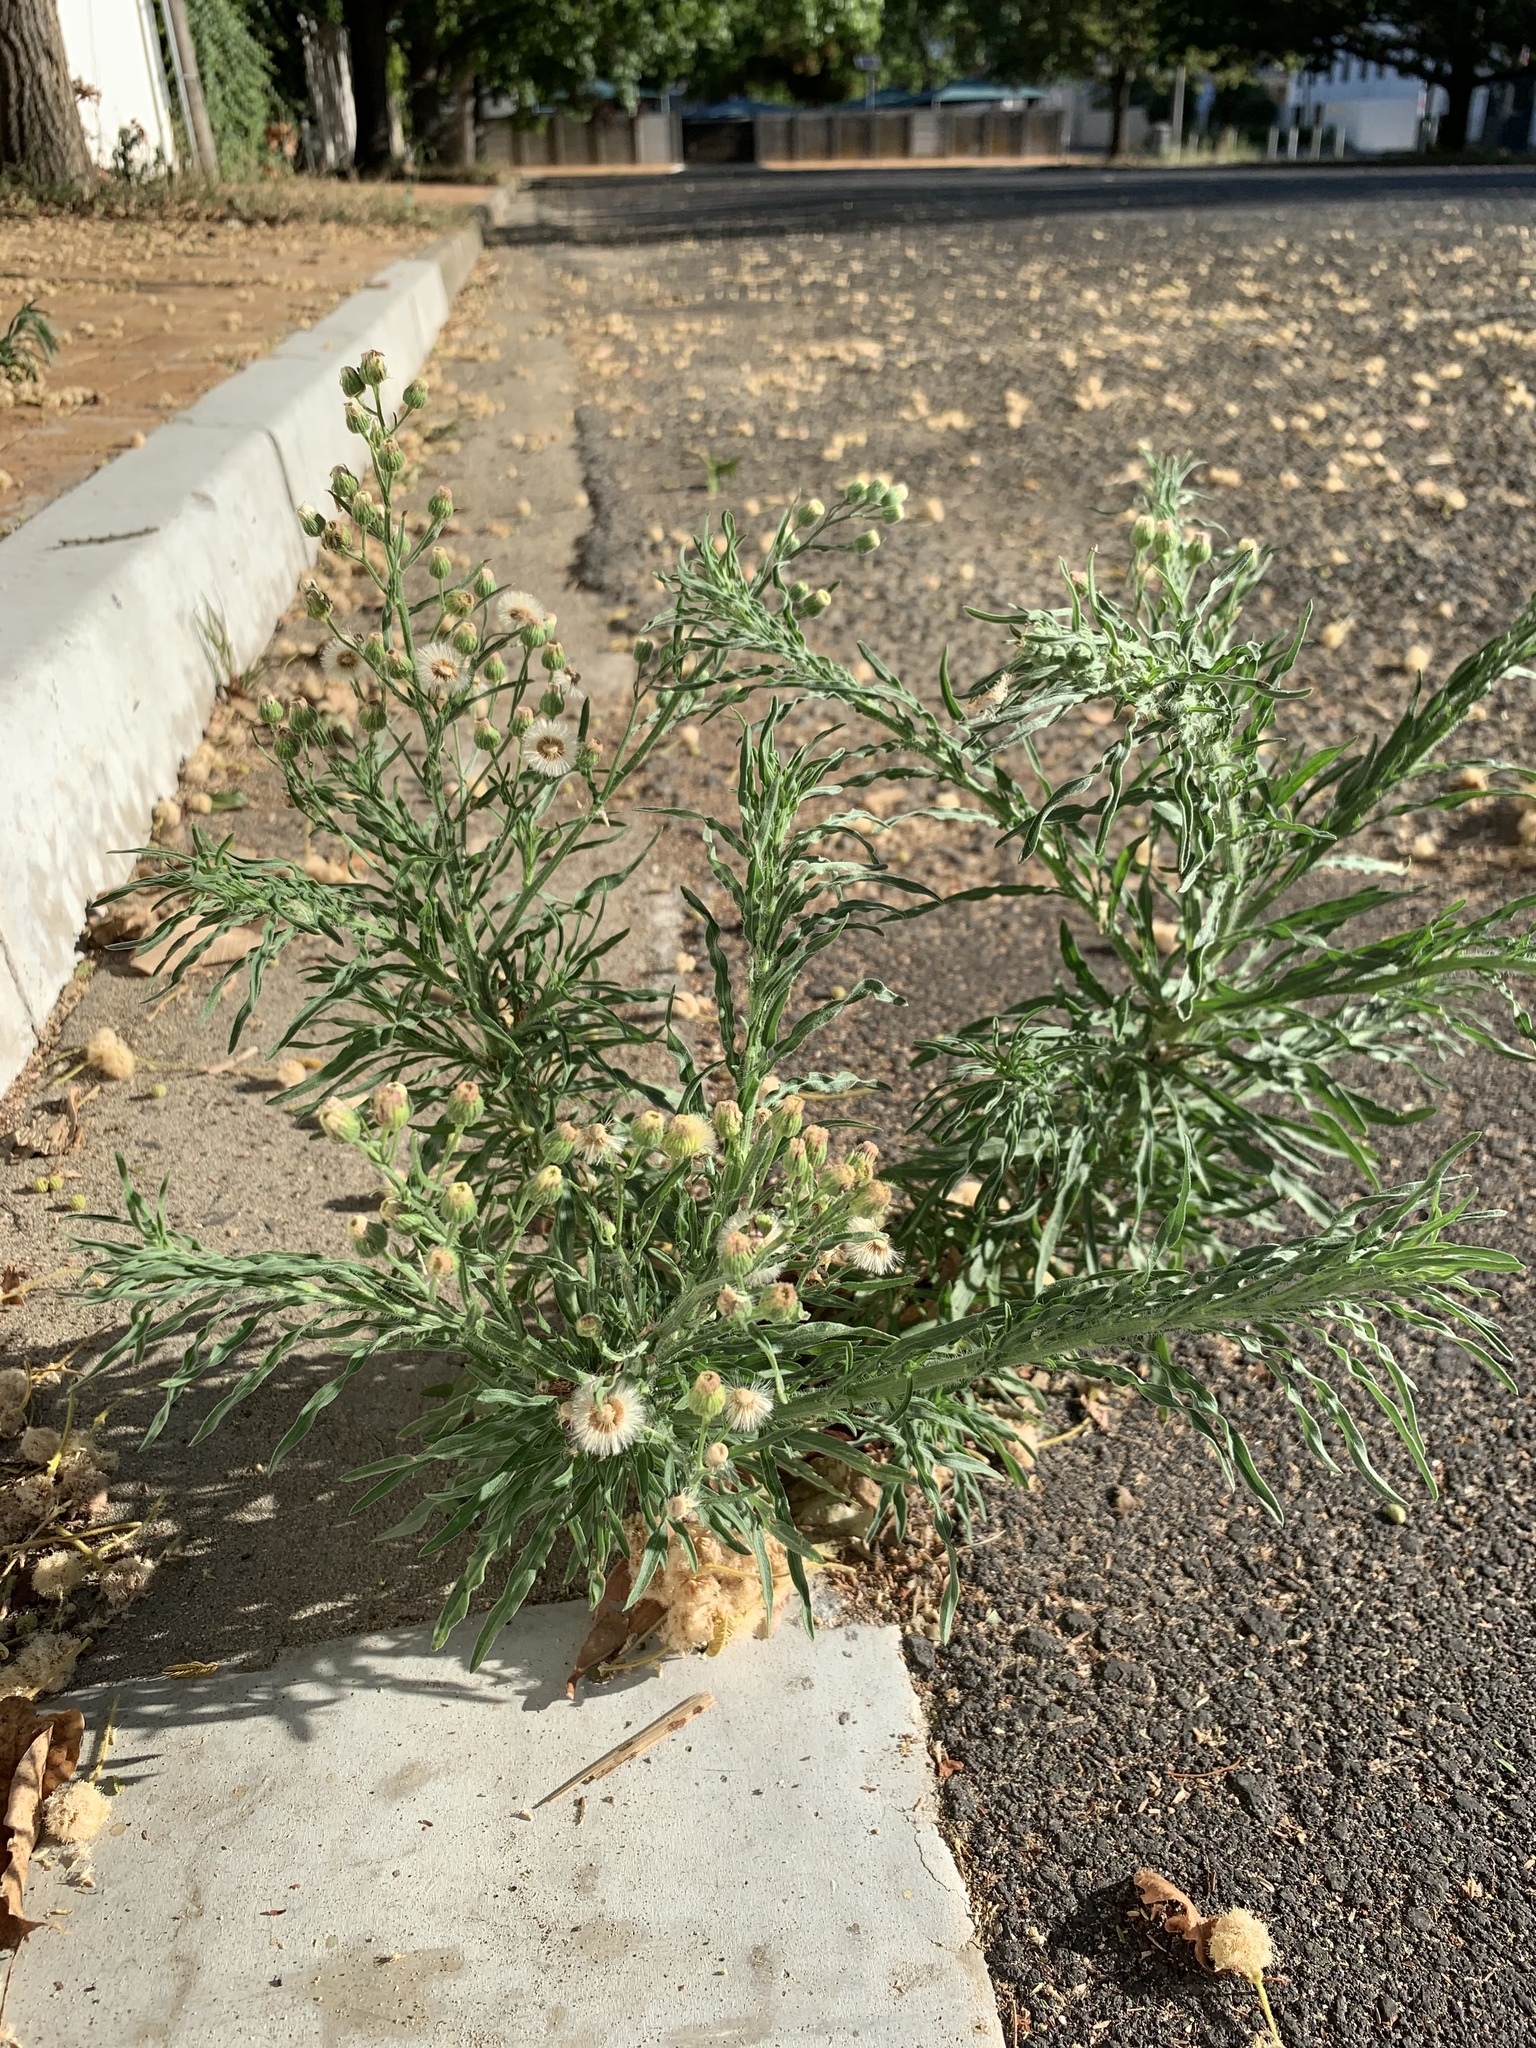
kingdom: Plantae
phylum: Tracheophyta
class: Magnoliopsida
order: Asterales
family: Asteraceae
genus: Erigeron
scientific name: Erigeron bonariensis
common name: Argentine fleabane
